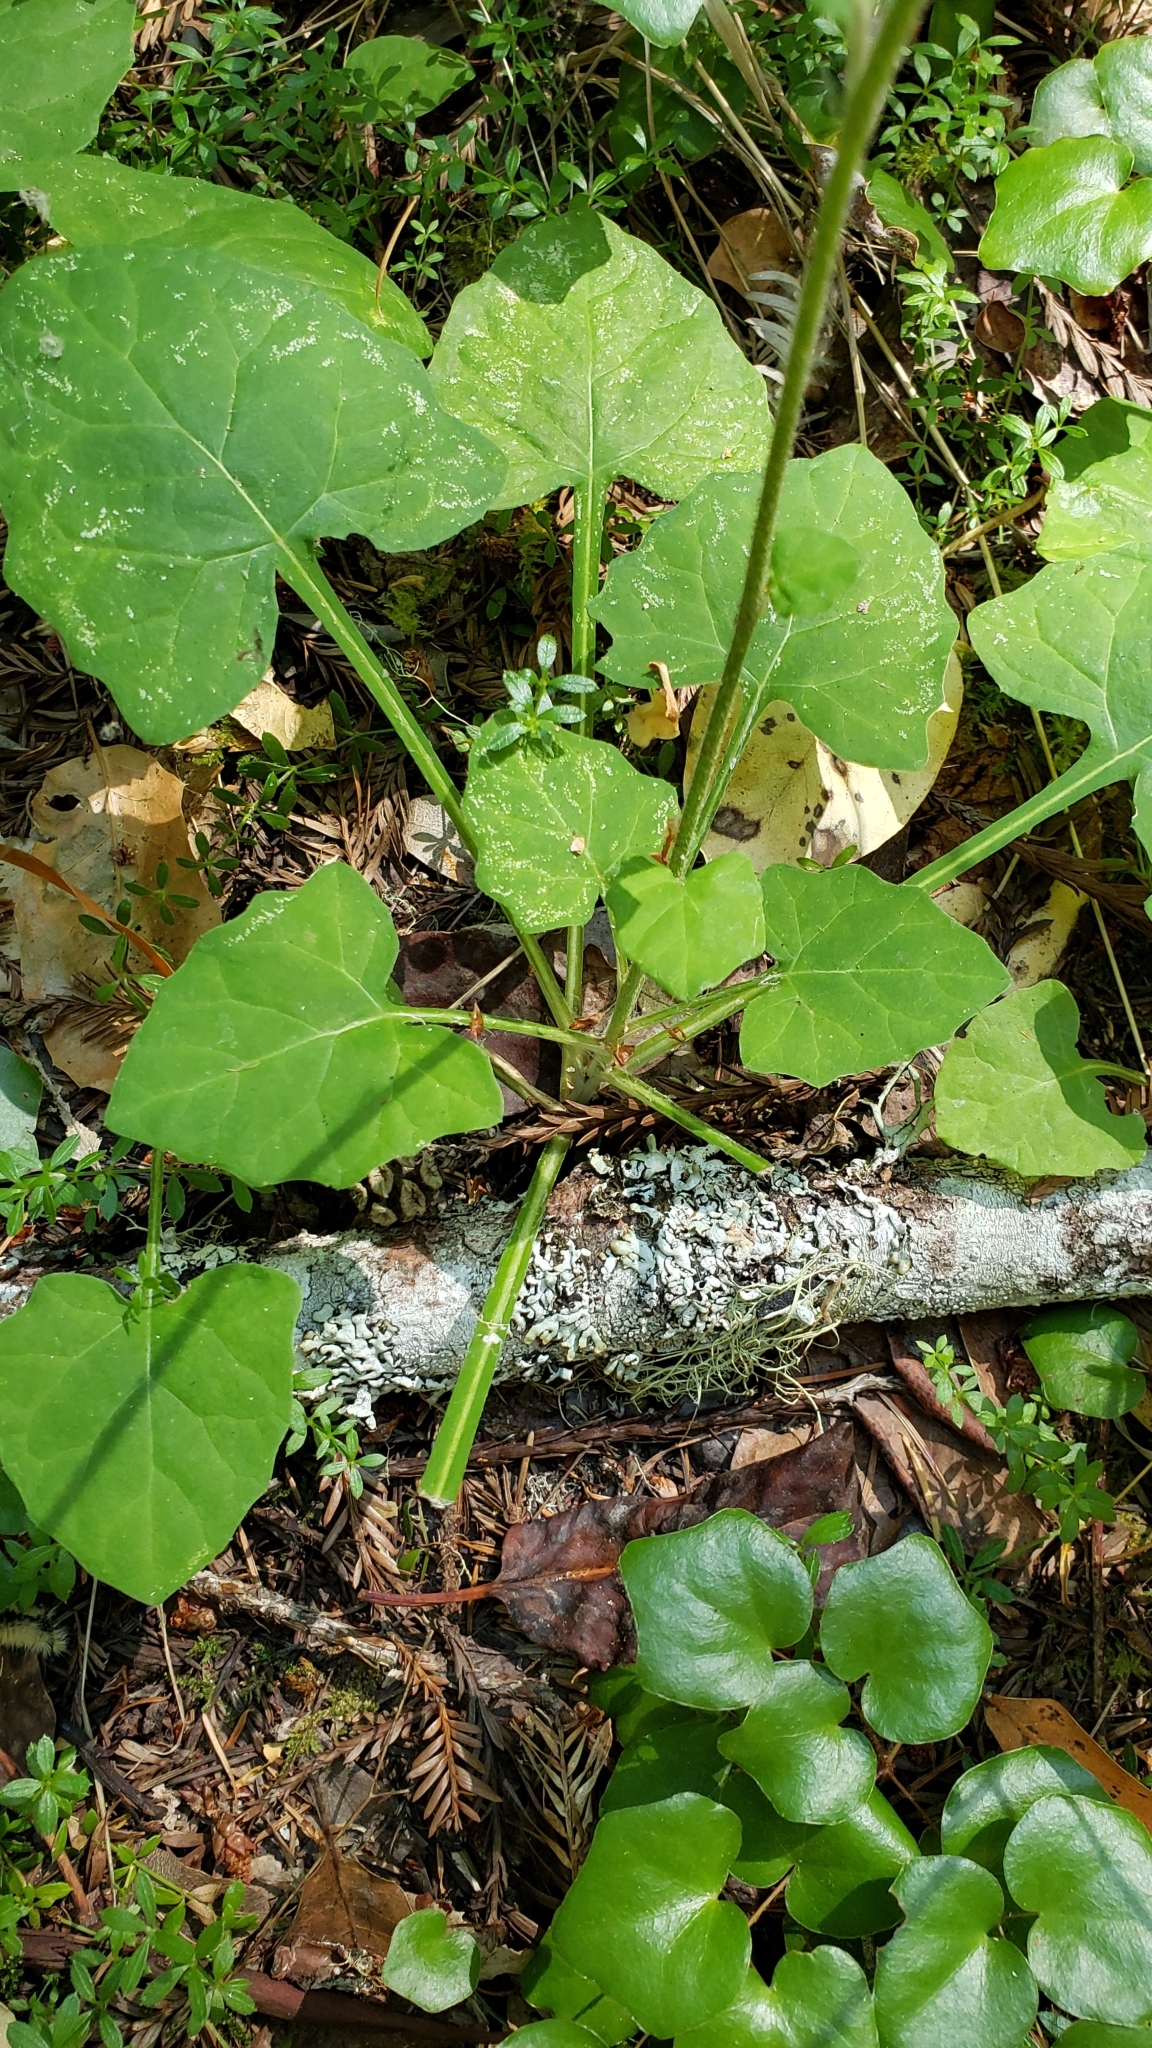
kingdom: Plantae
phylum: Tracheophyta
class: Magnoliopsida
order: Asterales
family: Asteraceae
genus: Adenocaulon
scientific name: Adenocaulon bicolor
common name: Trailplant
